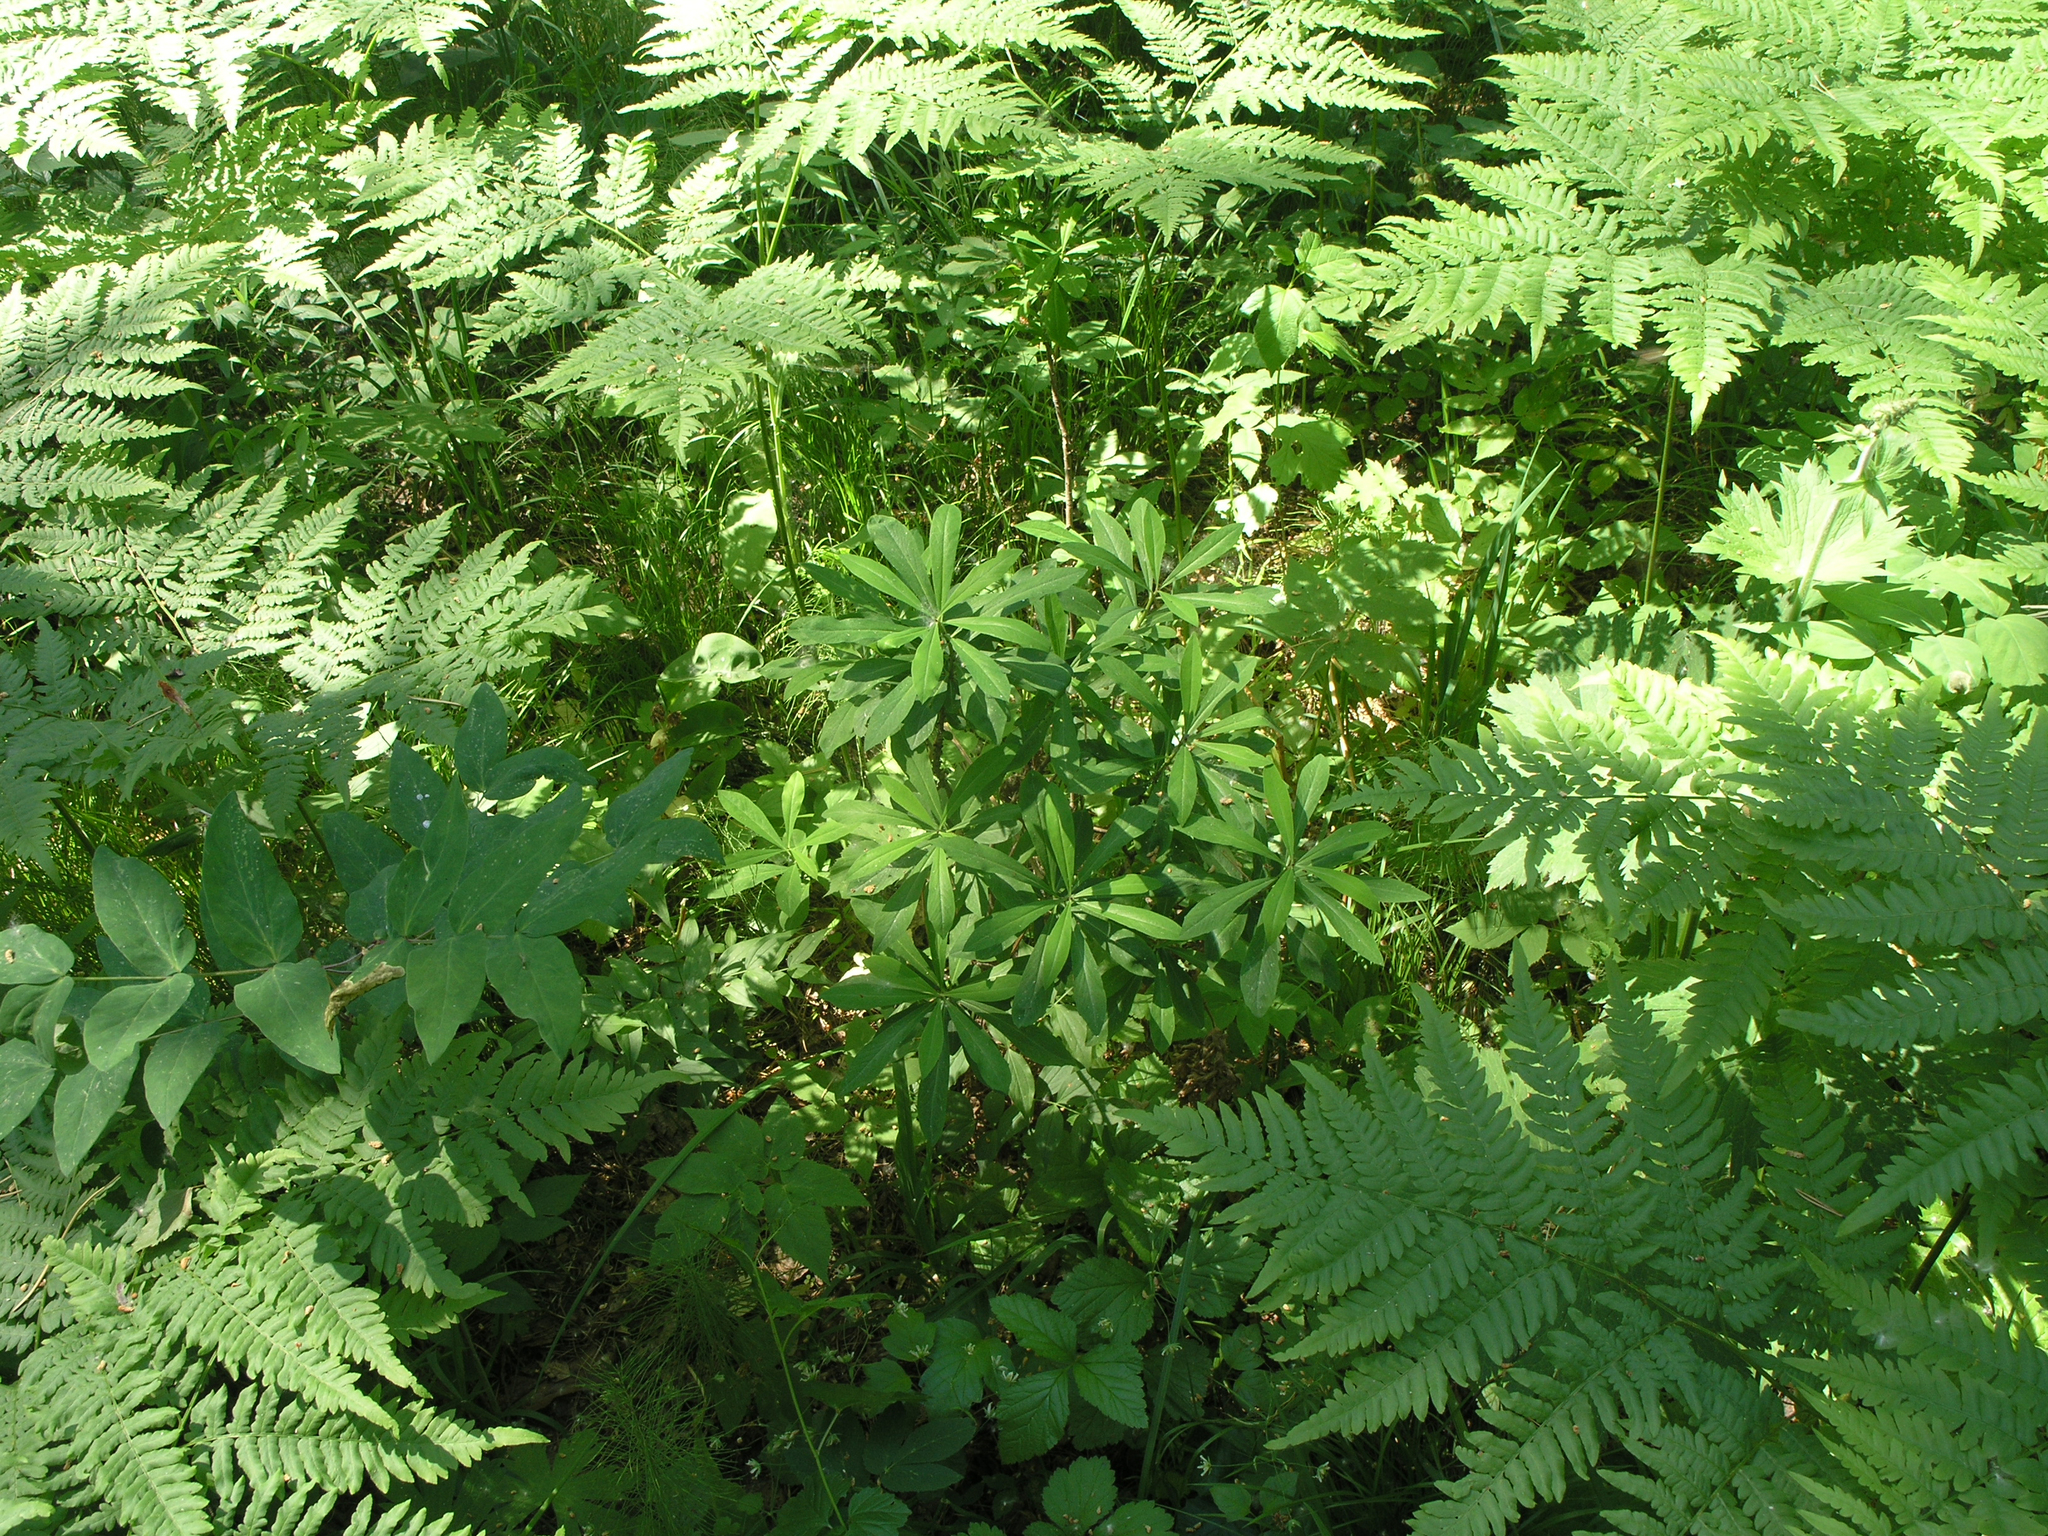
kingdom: Plantae
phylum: Tracheophyta
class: Magnoliopsida
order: Malvales
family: Thymelaeaceae
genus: Daphne
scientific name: Daphne mezereum
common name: Mezereon
